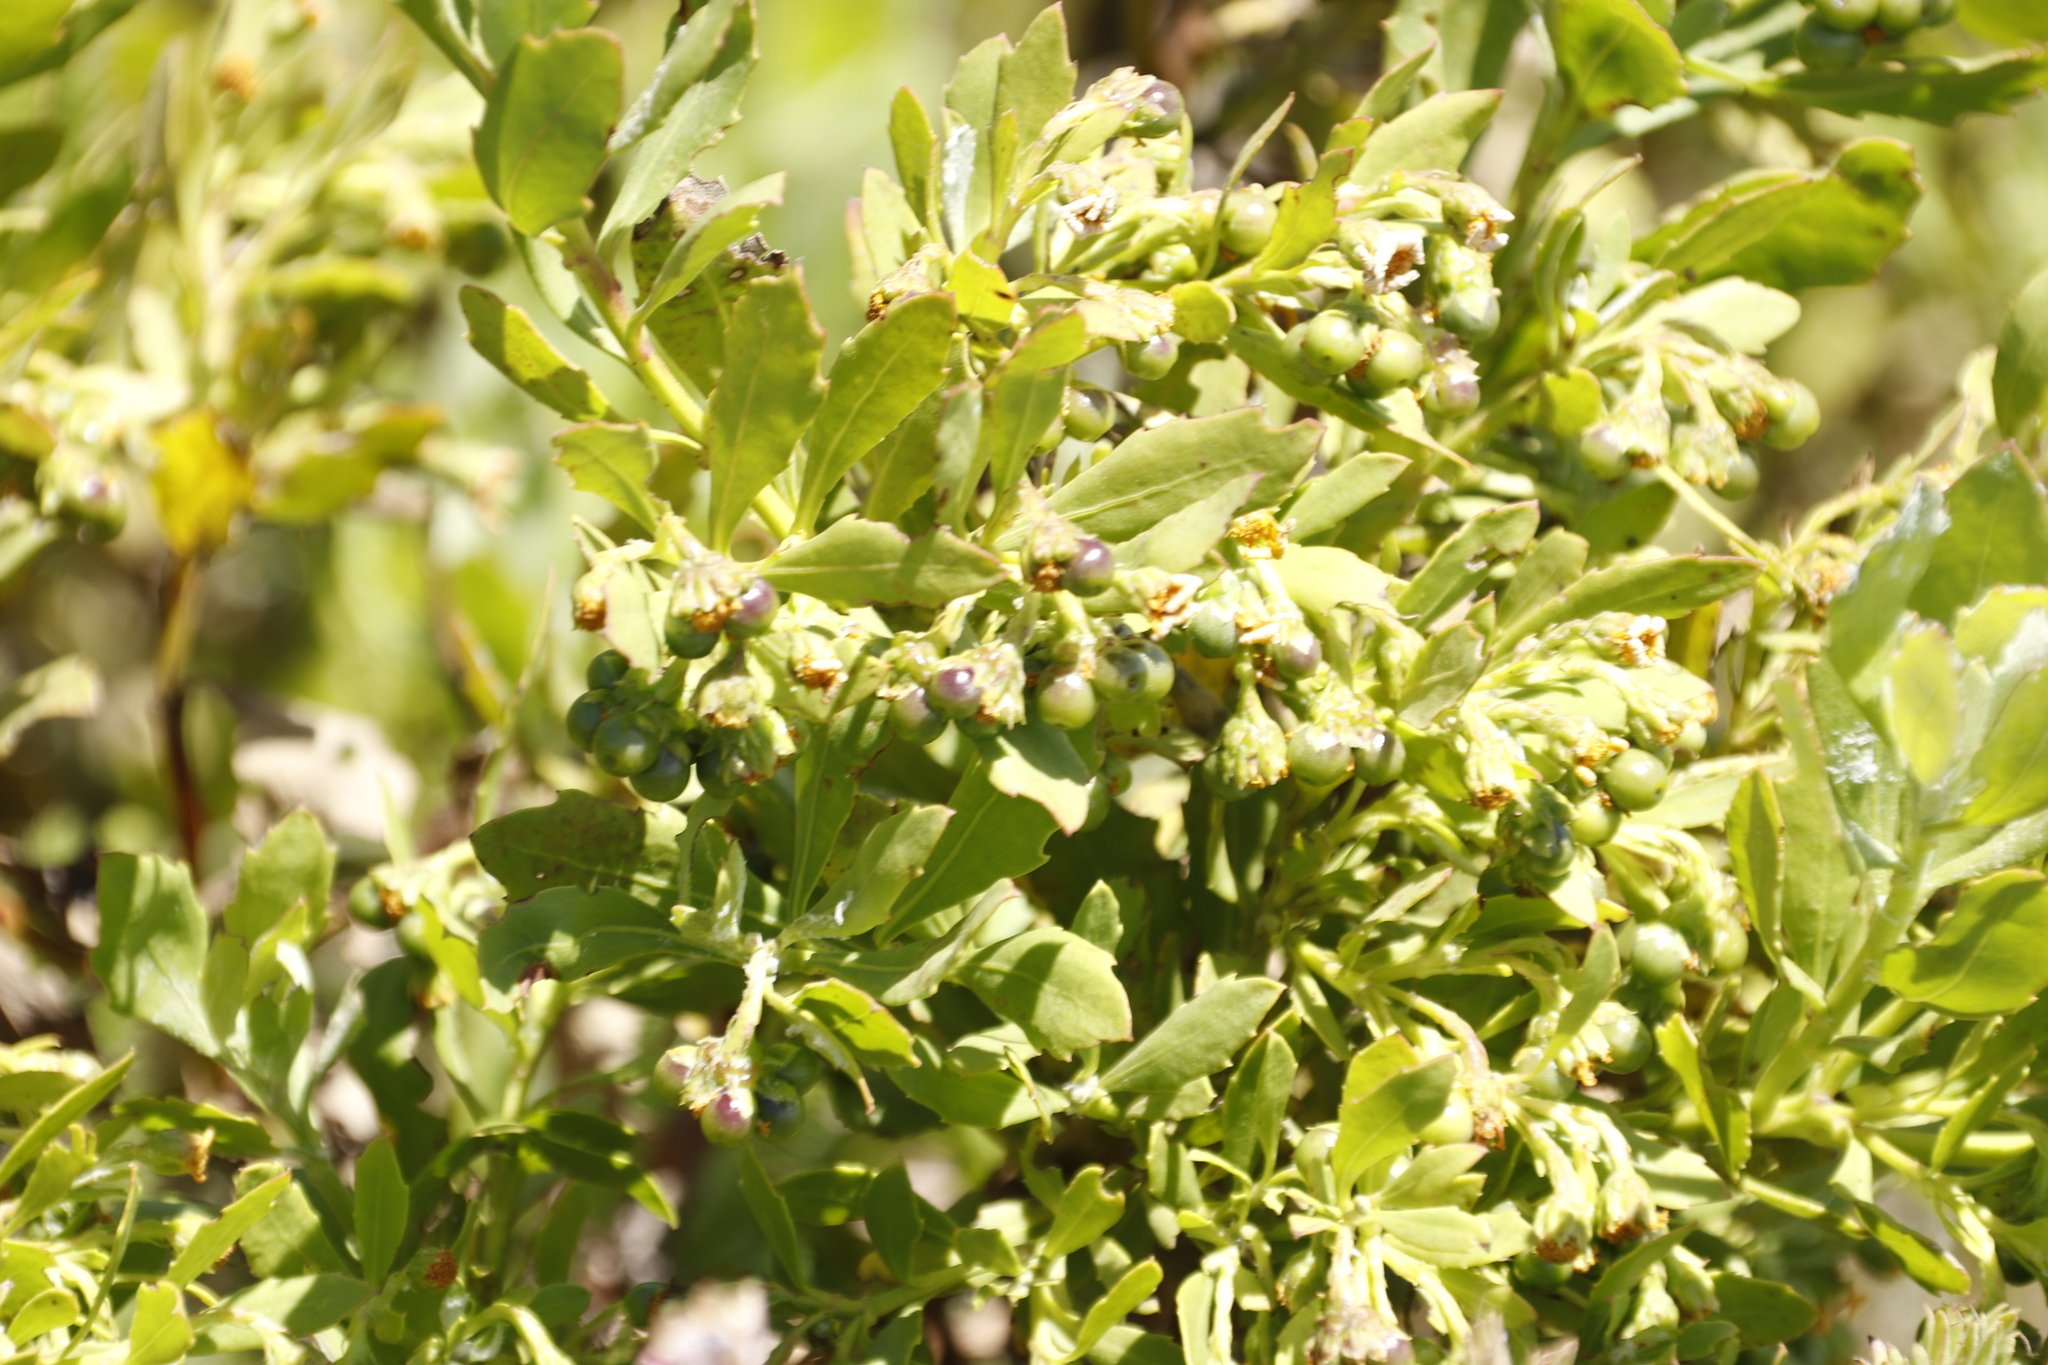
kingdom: Plantae
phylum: Tracheophyta
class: Magnoliopsida
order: Asterales
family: Asteraceae
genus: Osteospermum
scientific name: Osteospermum moniliferum
